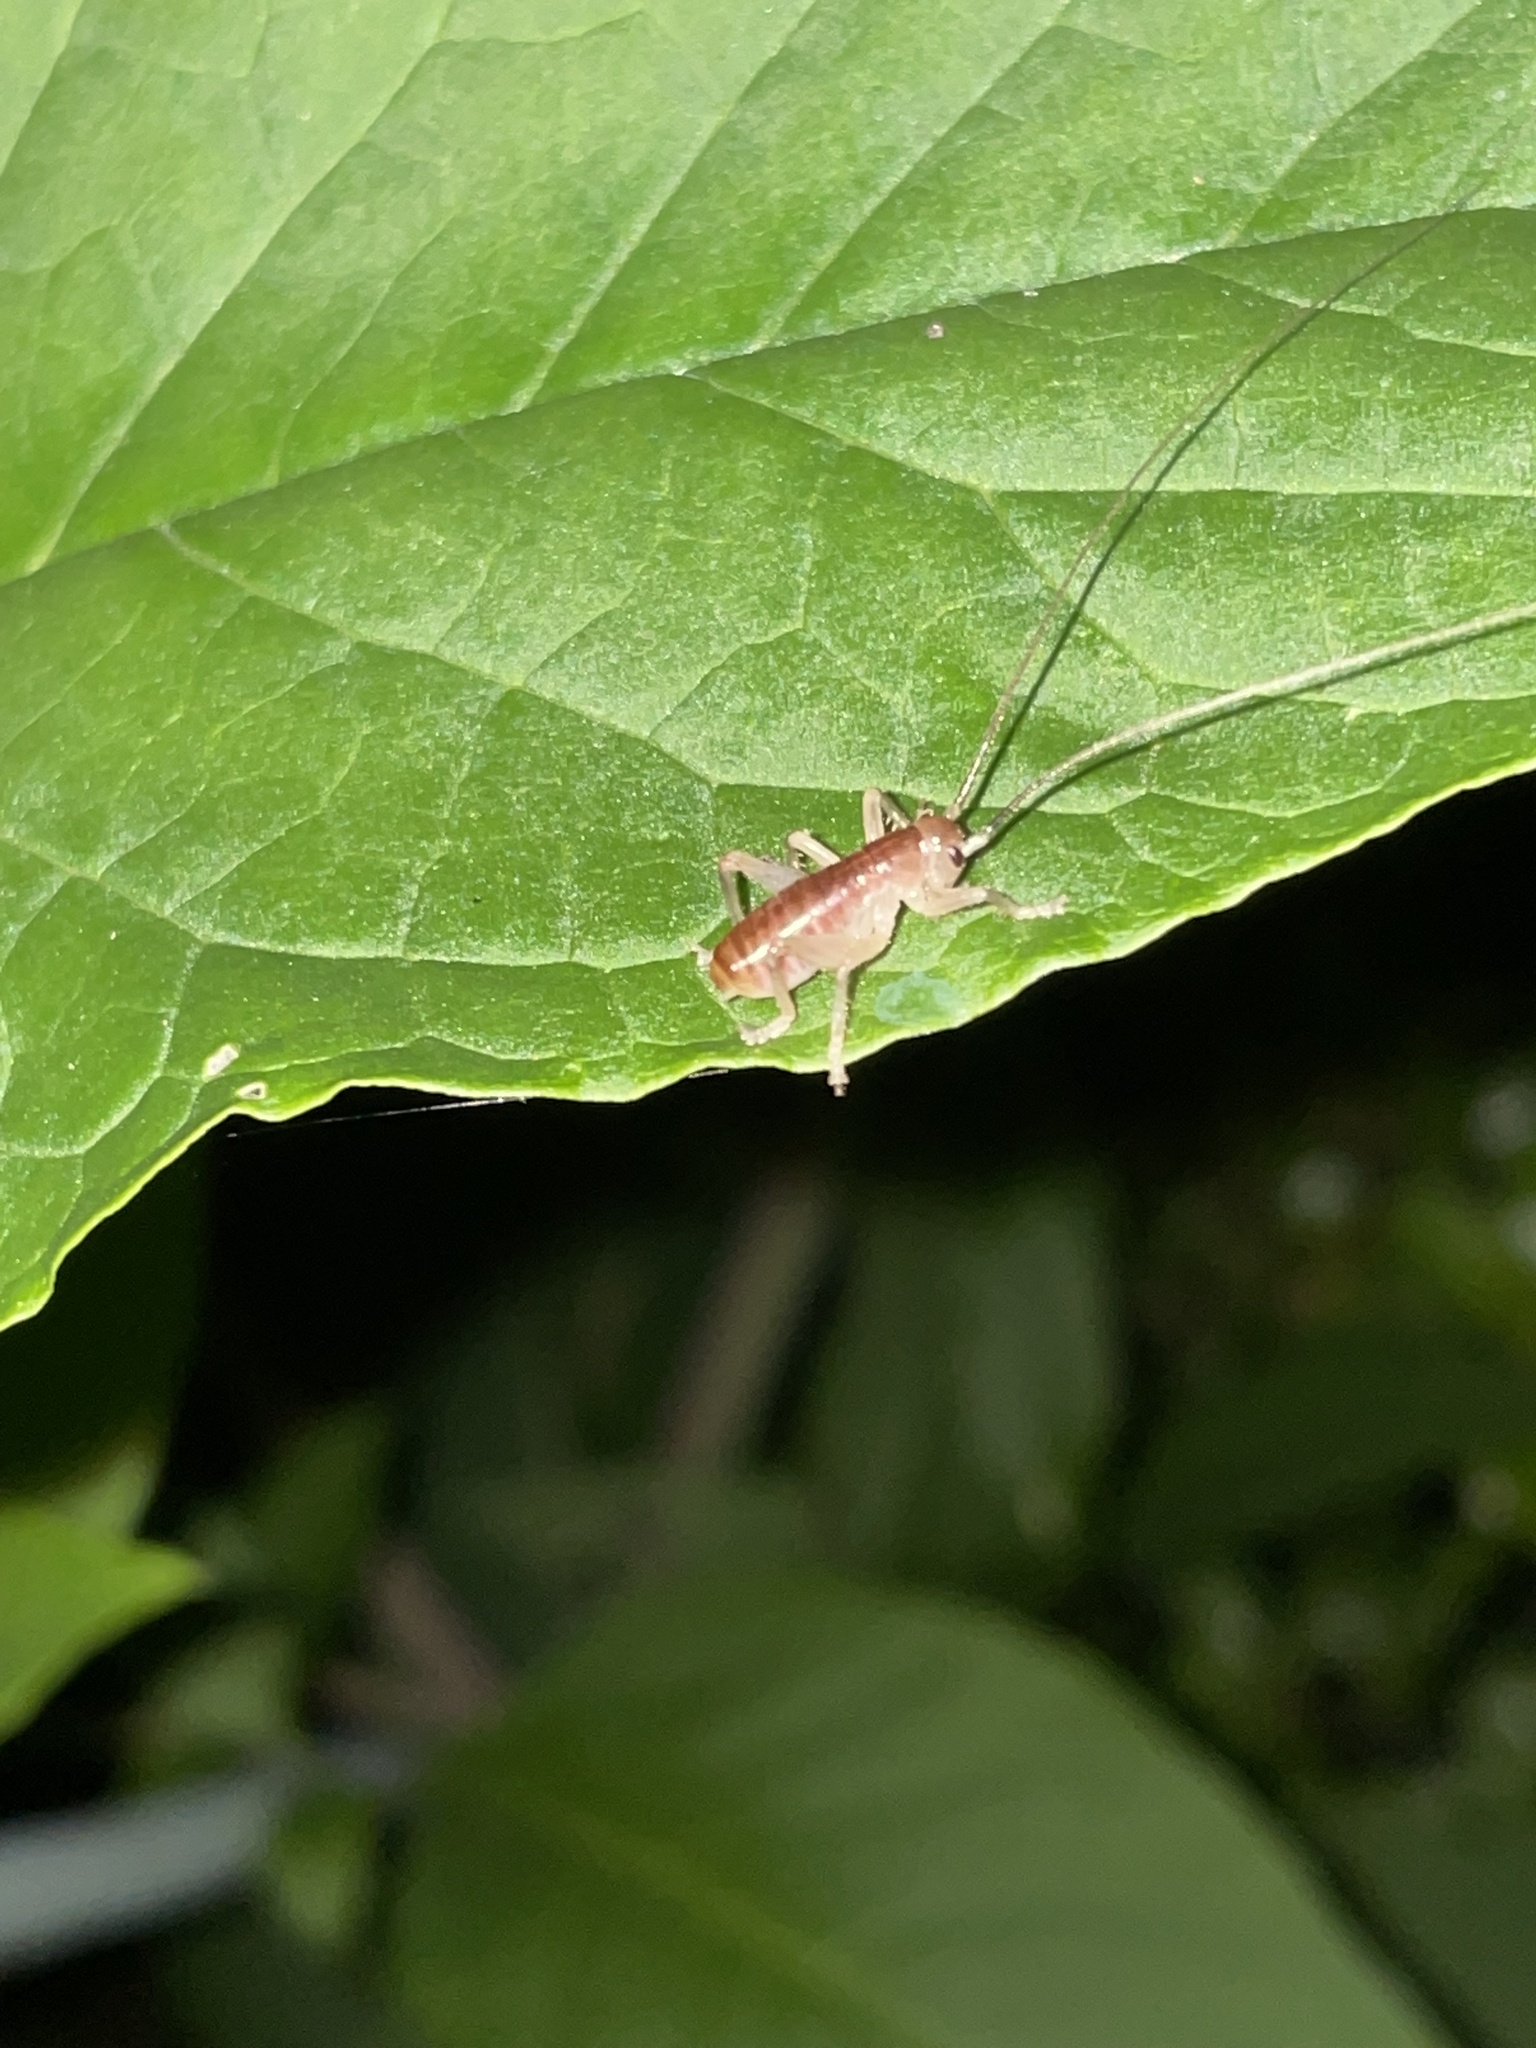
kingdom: Animalia
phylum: Arthropoda
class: Insecta
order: Orthoptera
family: Gryllacrididae
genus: Camptonotus
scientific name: Camptonotus carolinensis
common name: Carolina leaf-roller
